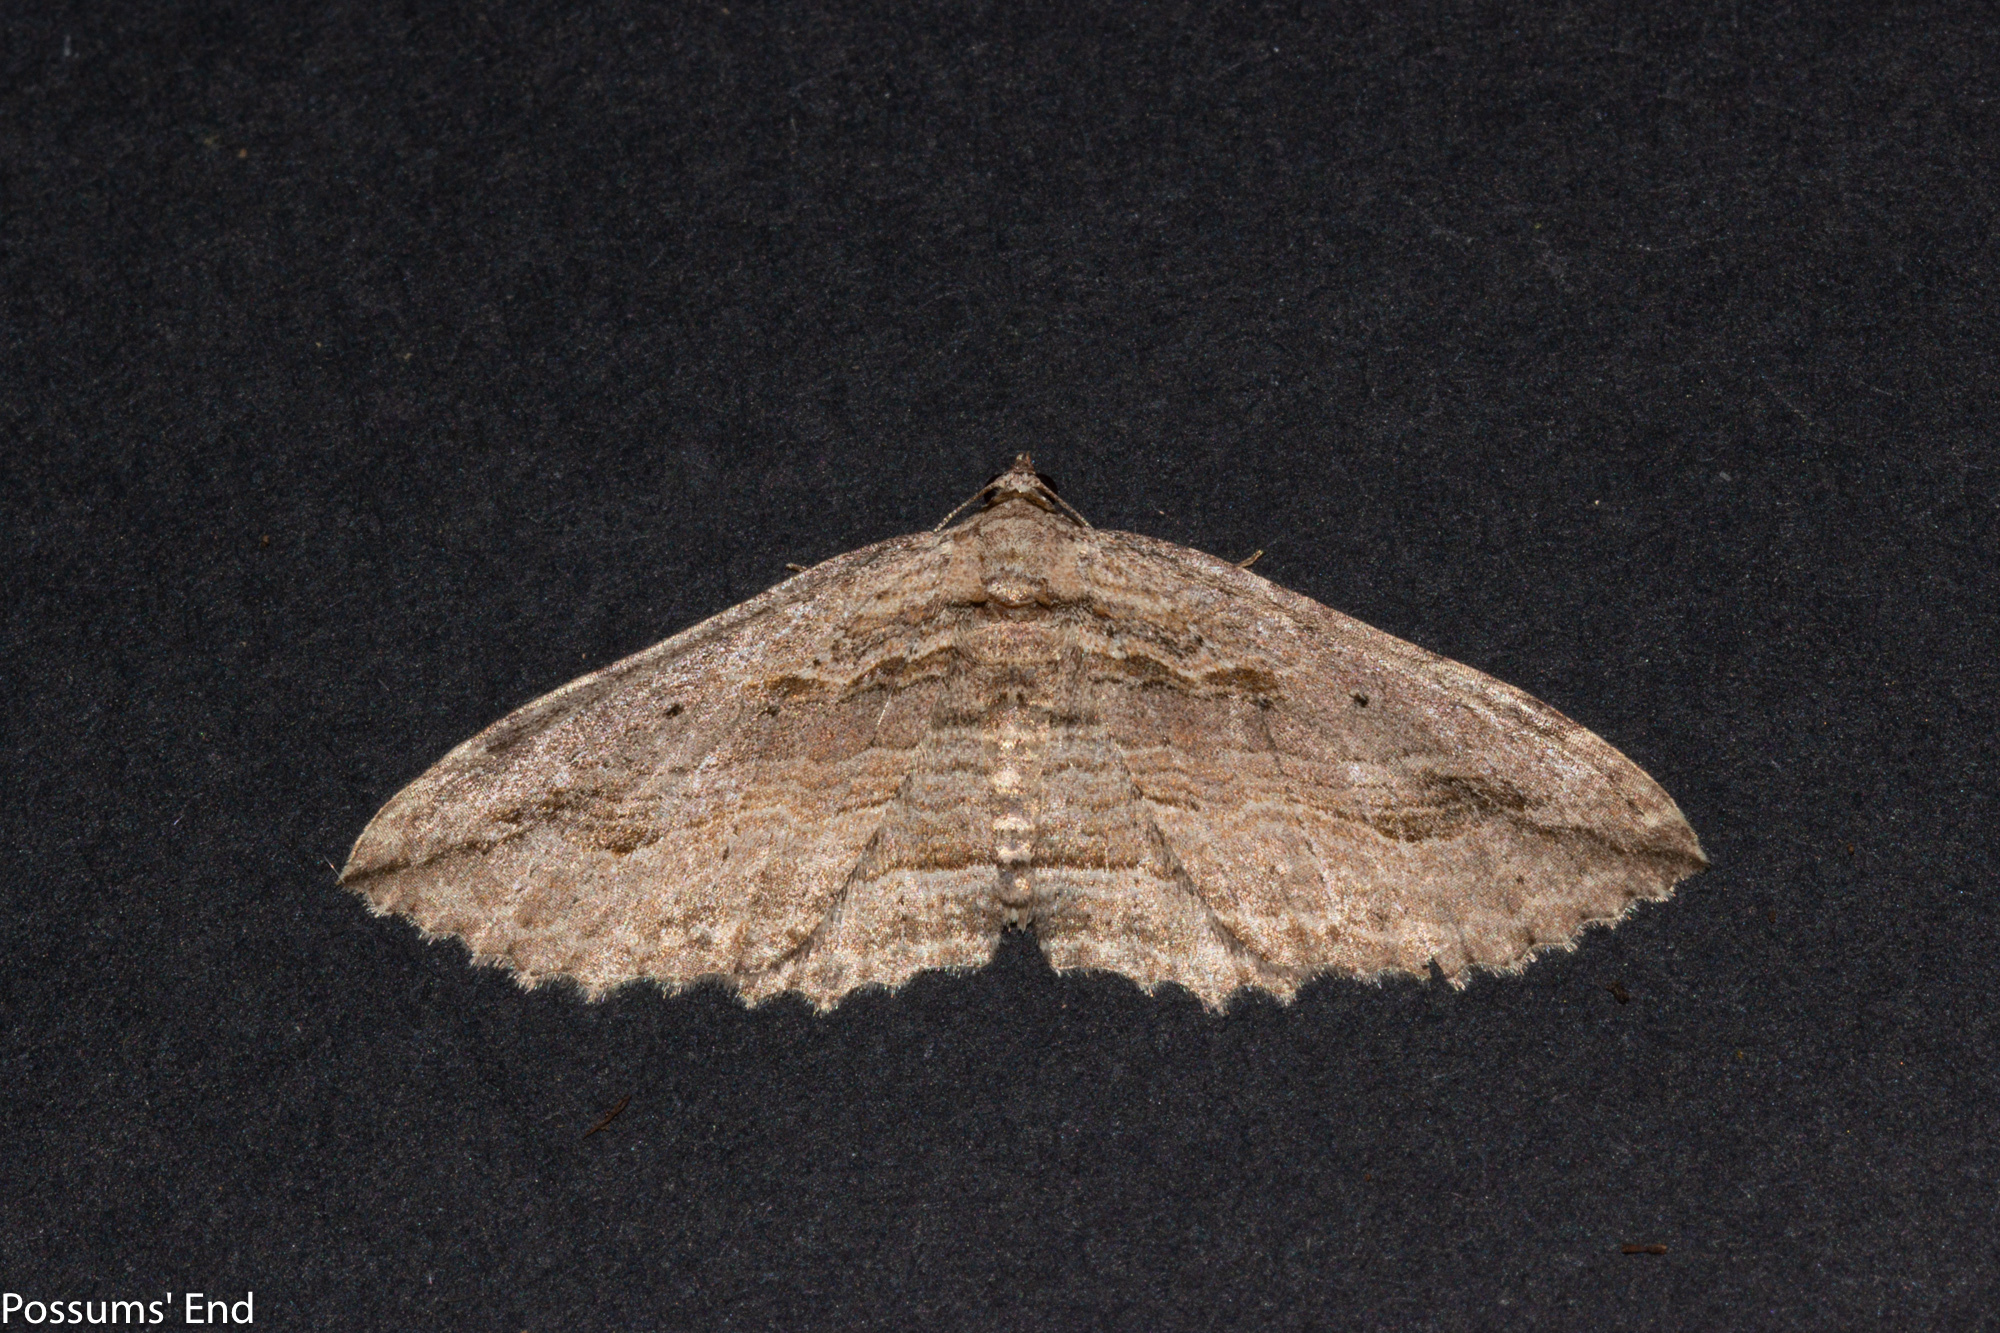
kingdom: Animalia
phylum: Arthropoda
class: Insecta
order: Lepidoptera
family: Geometridae
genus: Austrocidaria
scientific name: Austrocidaria gobiata
